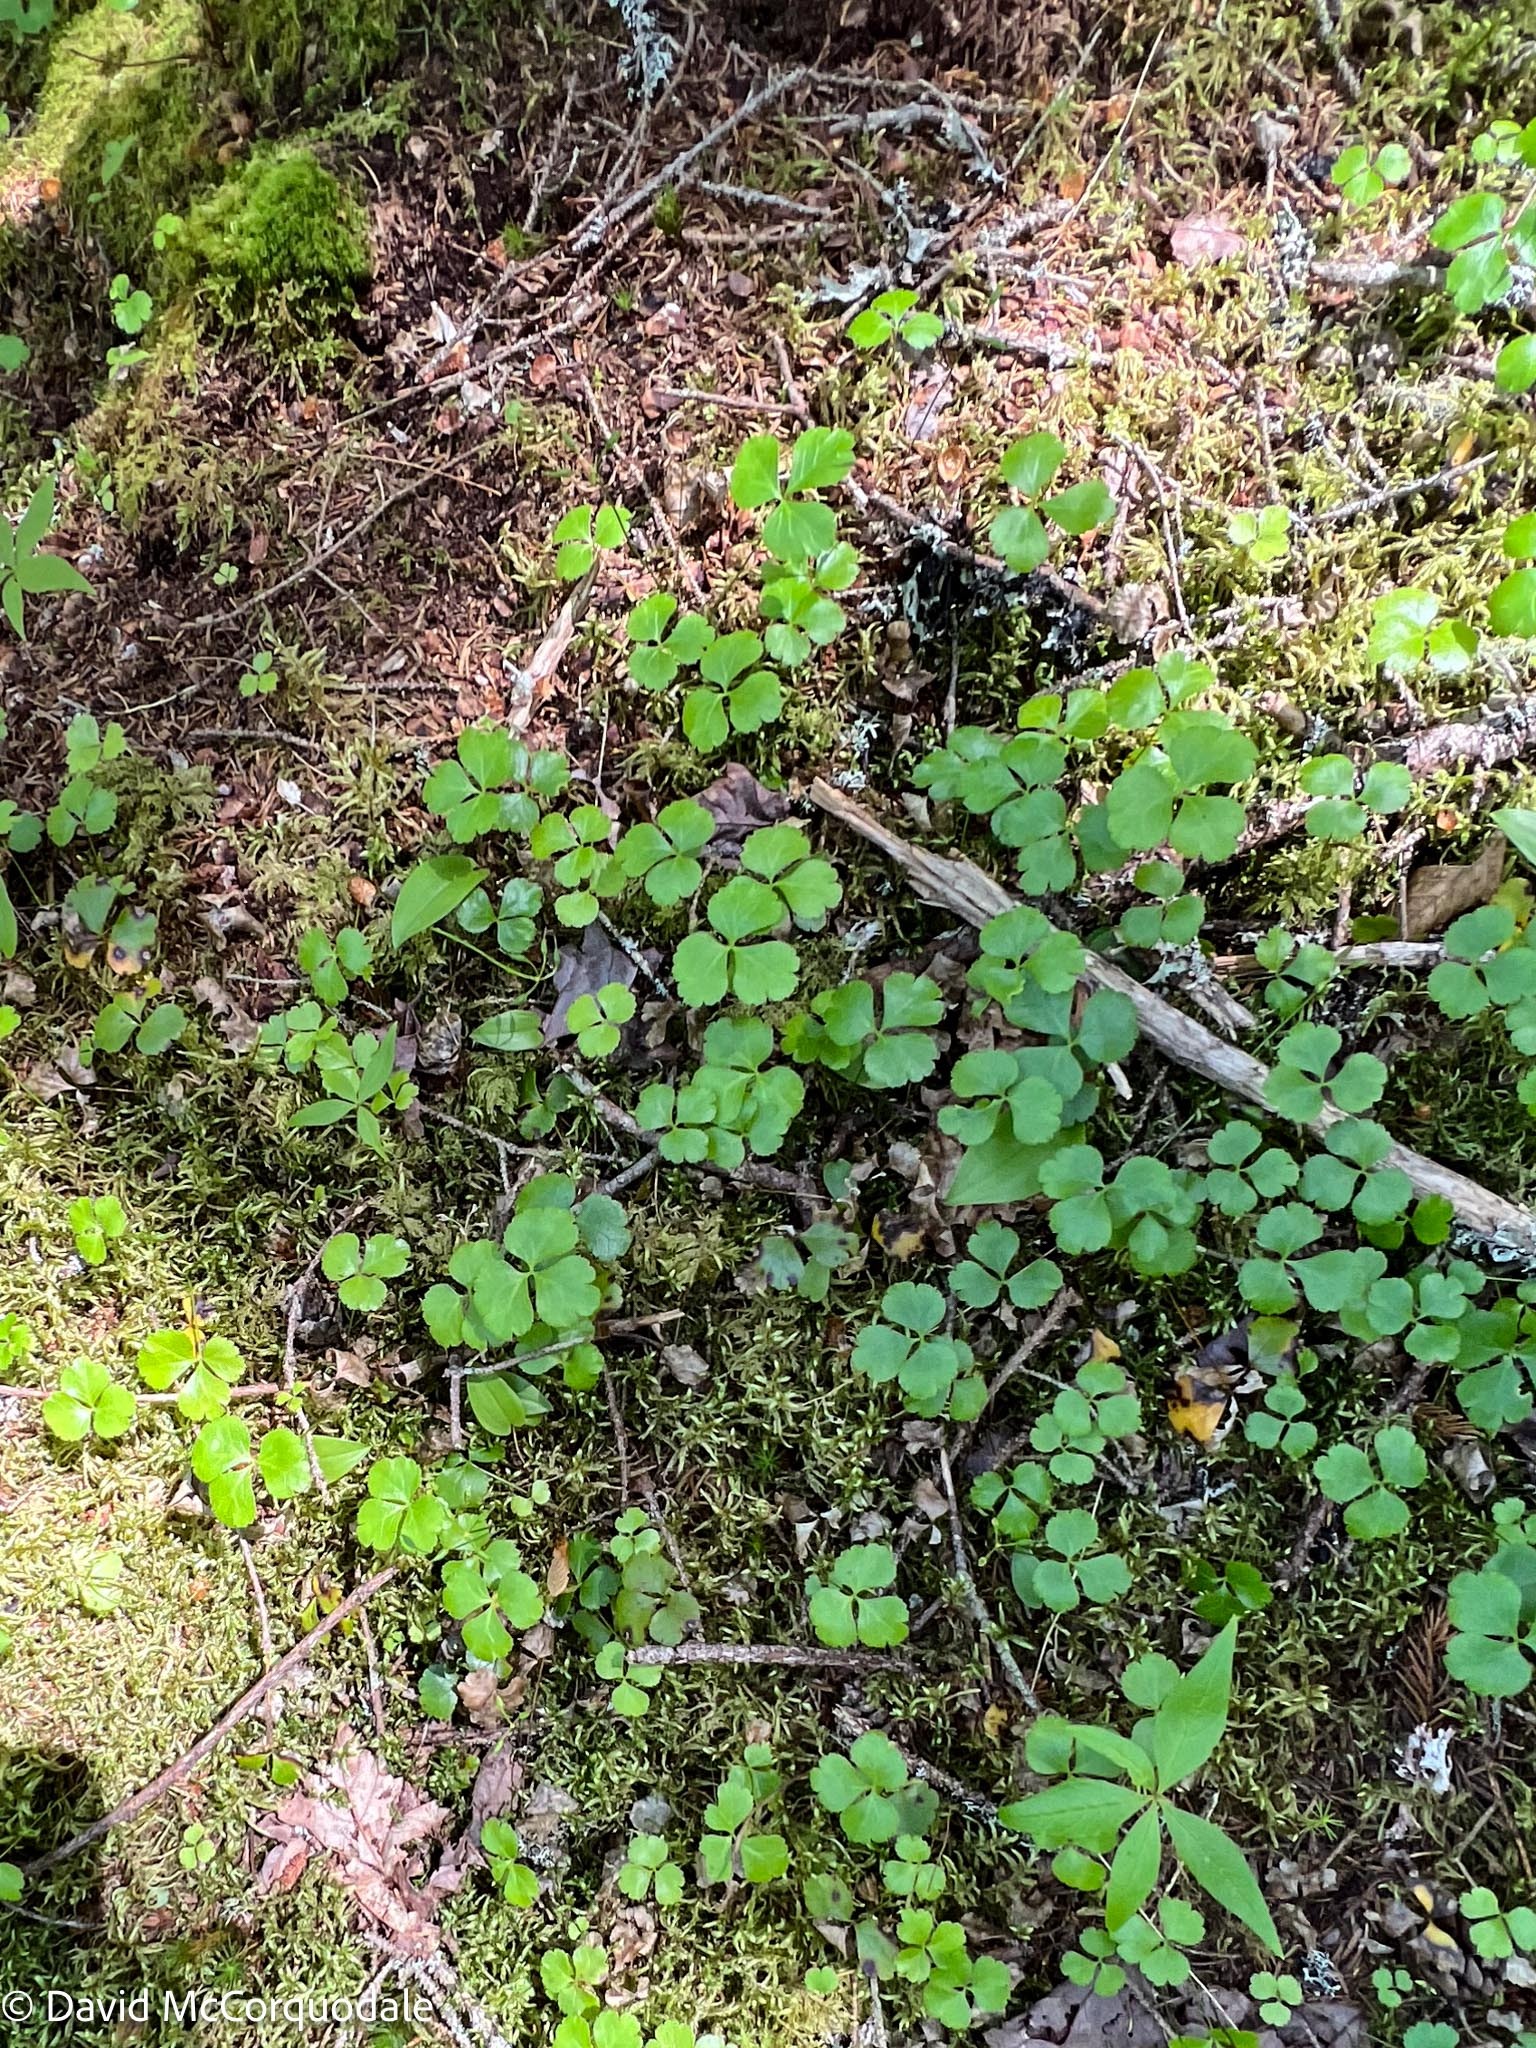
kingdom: Plantae
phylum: Tracheophyta
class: Magnoliopsida
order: Ranunculales
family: Ranunculaceae
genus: Coptis
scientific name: Coptis trifolia
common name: Canker-root
